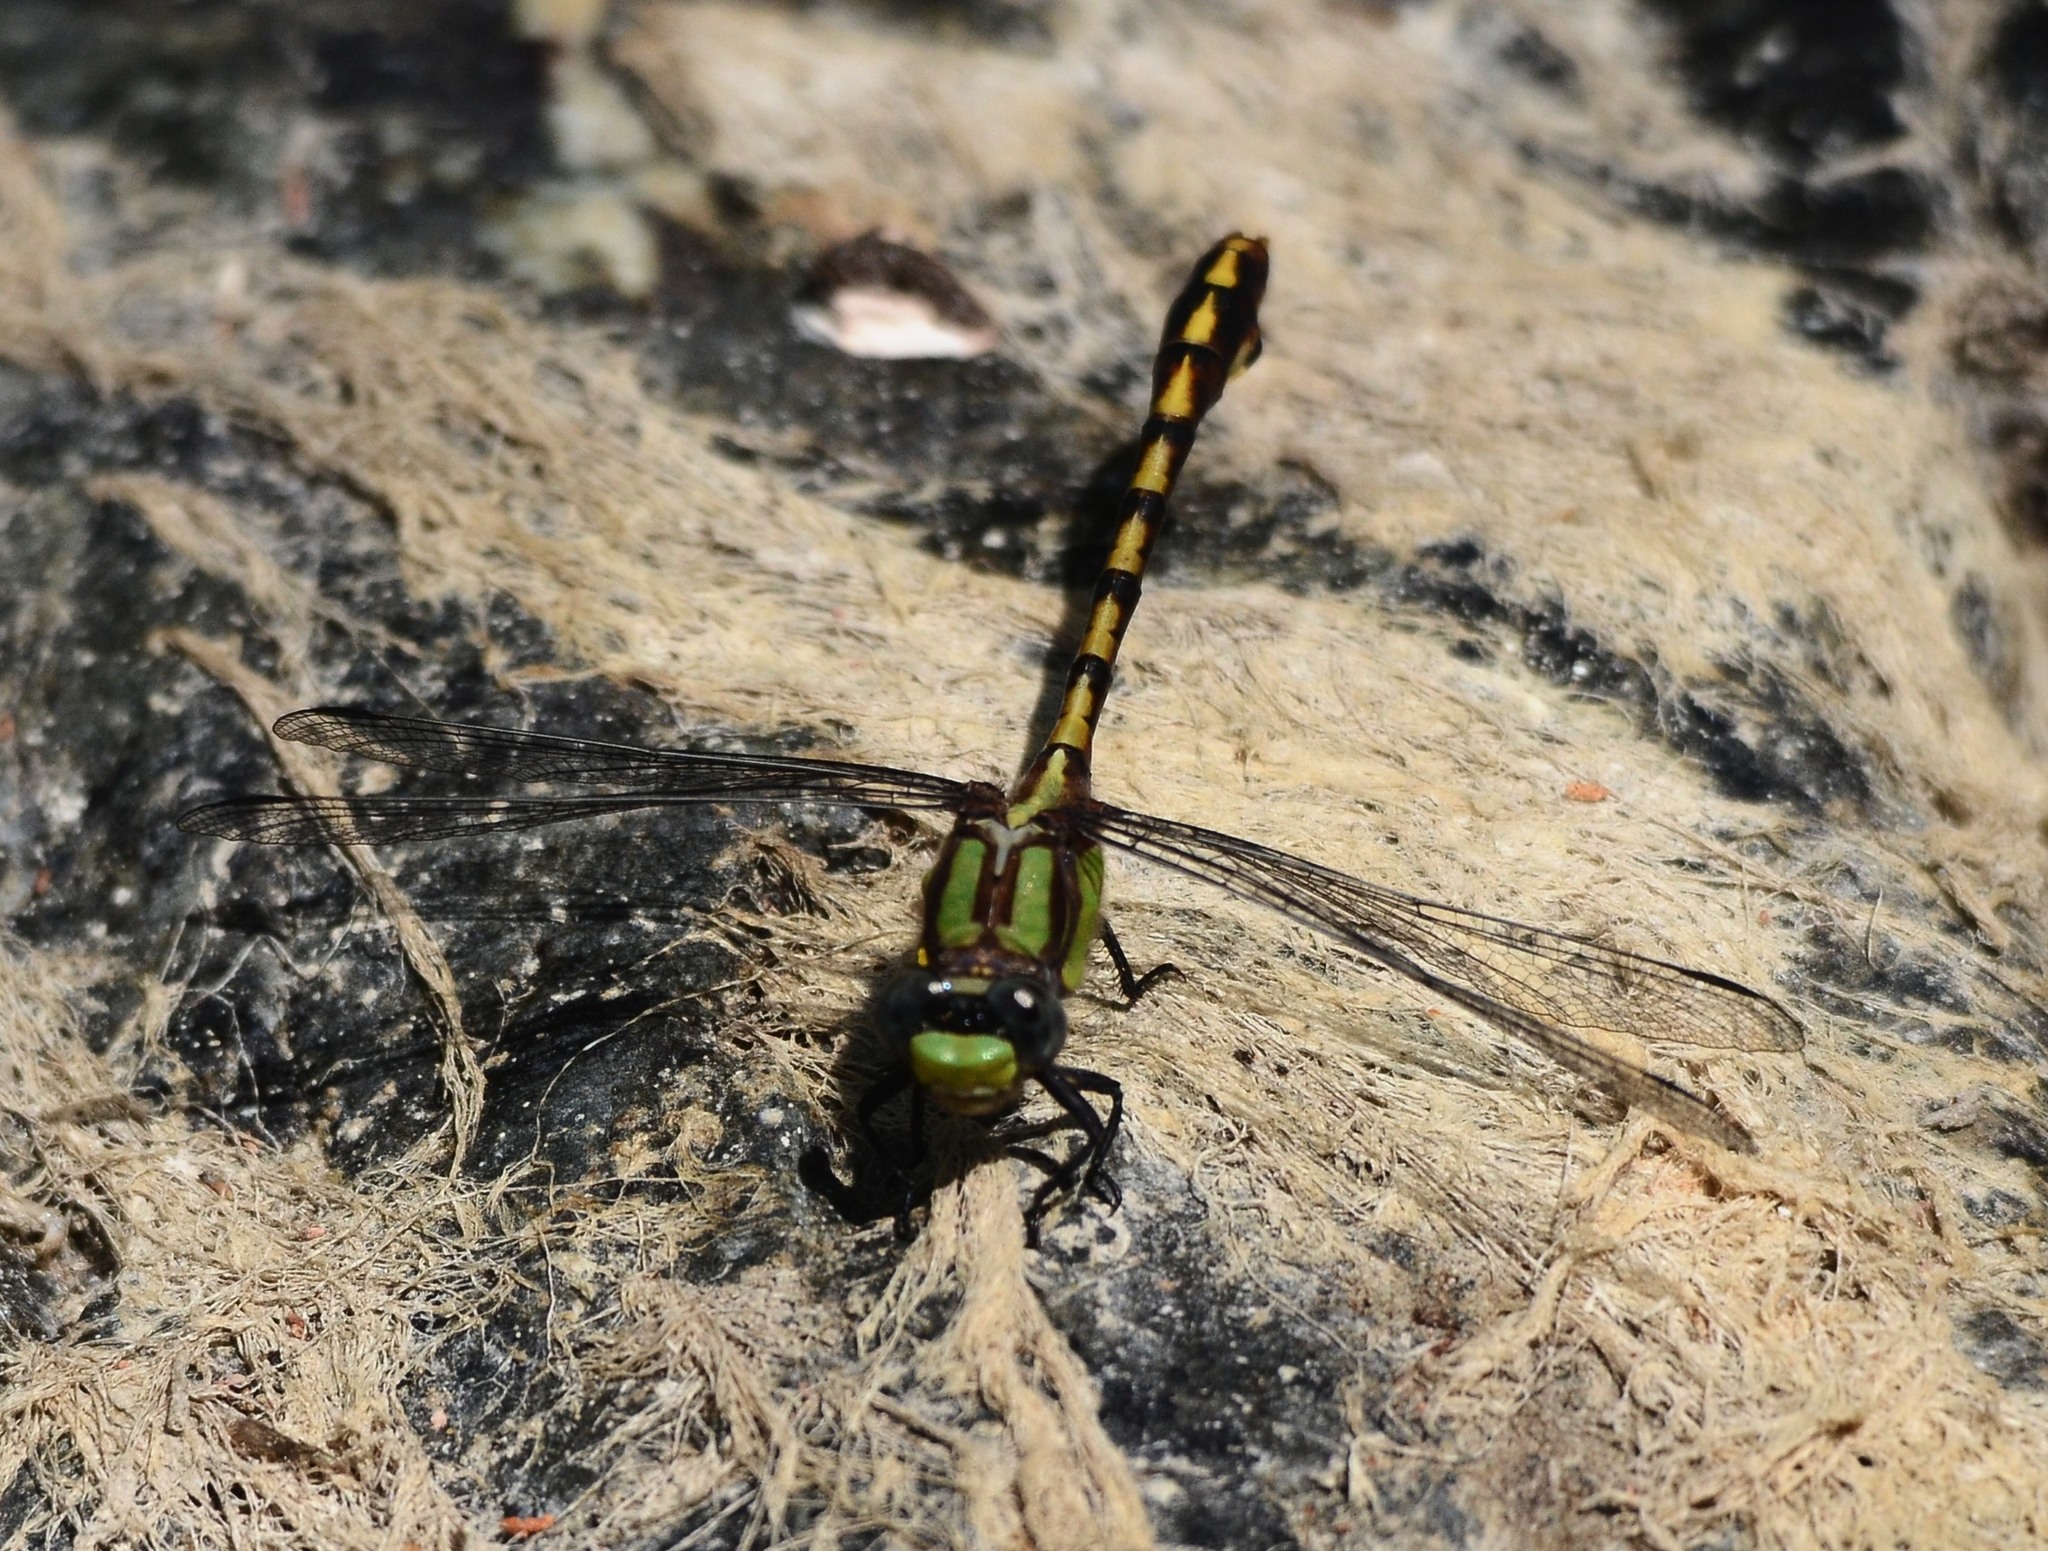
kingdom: Animalia
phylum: Arthropoda
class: Insecta
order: Odonata
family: Gomphidae
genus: Ophiogomphus
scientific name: Ophiogomphus bison
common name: Bison snaketail
